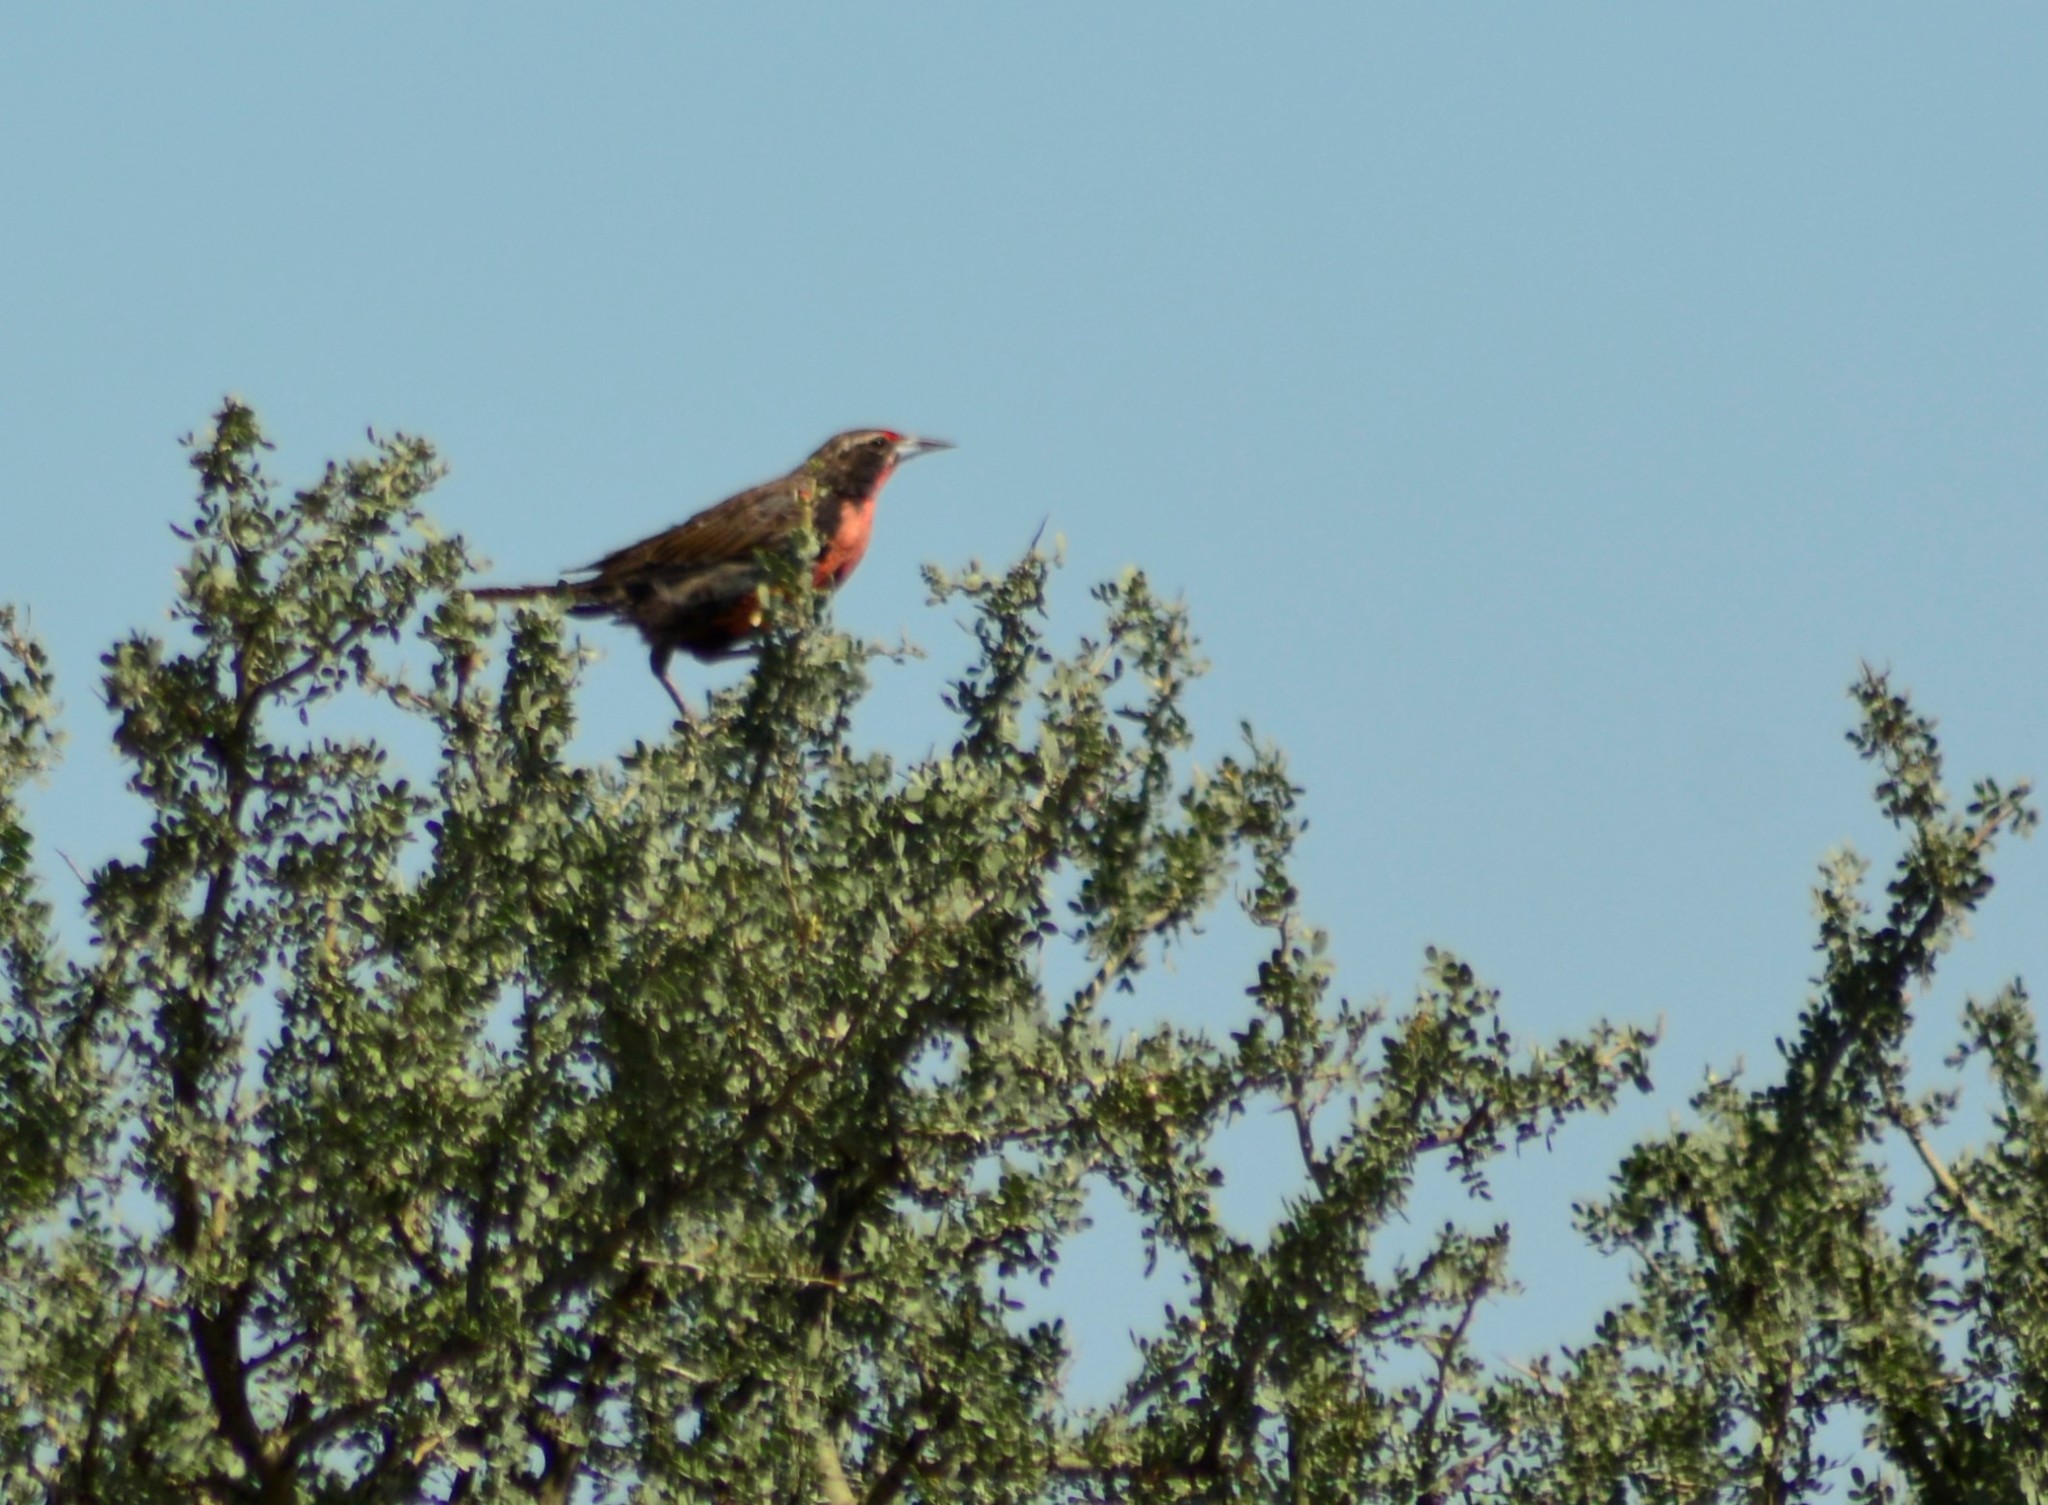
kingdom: Animalia
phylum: Chordata
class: Aves
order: Passeriformes
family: Icteridae
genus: Sturnella
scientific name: Sturnella loyca
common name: Long-tailed meadowlark
